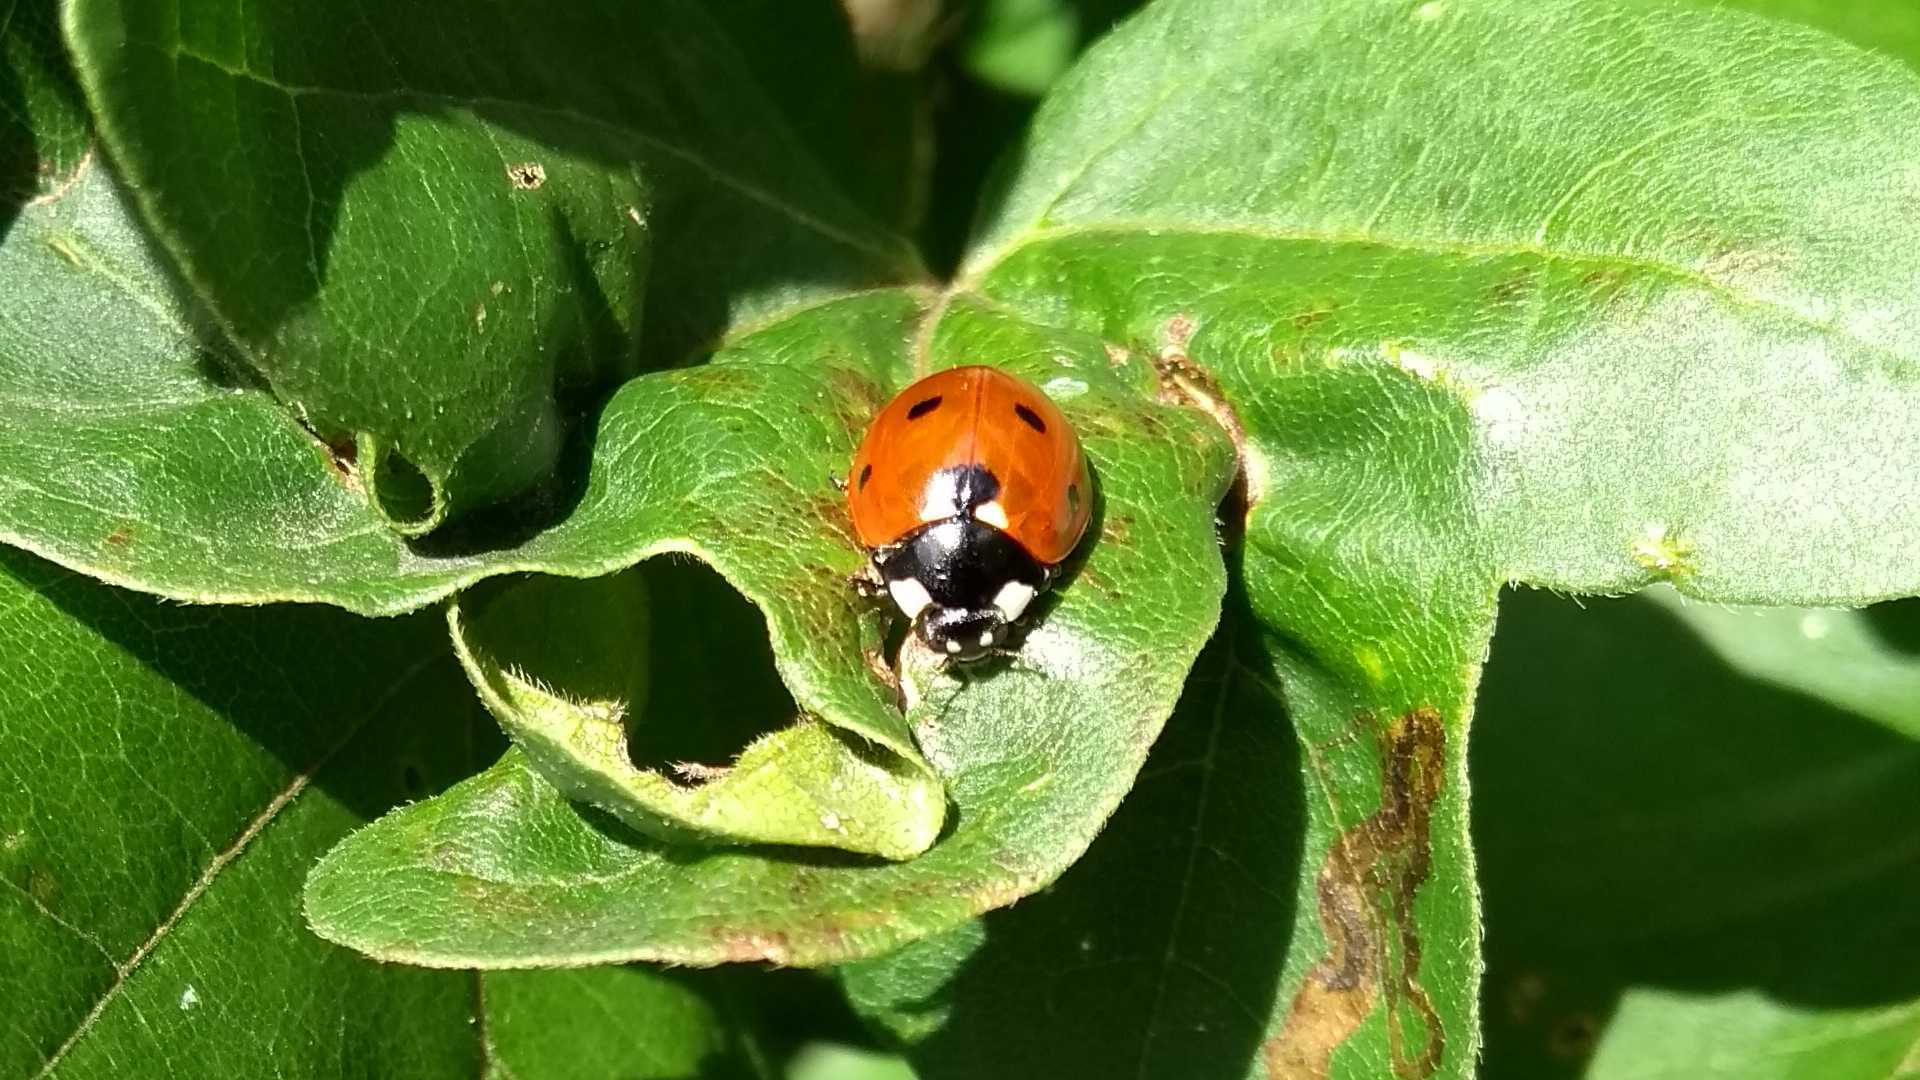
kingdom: Animalia
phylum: Arthropoda
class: Insecta
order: Coleoptera
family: Coccinellidae
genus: Coccinella
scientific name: Coccinella septempunctata
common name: Sevenspotted lady beetle
